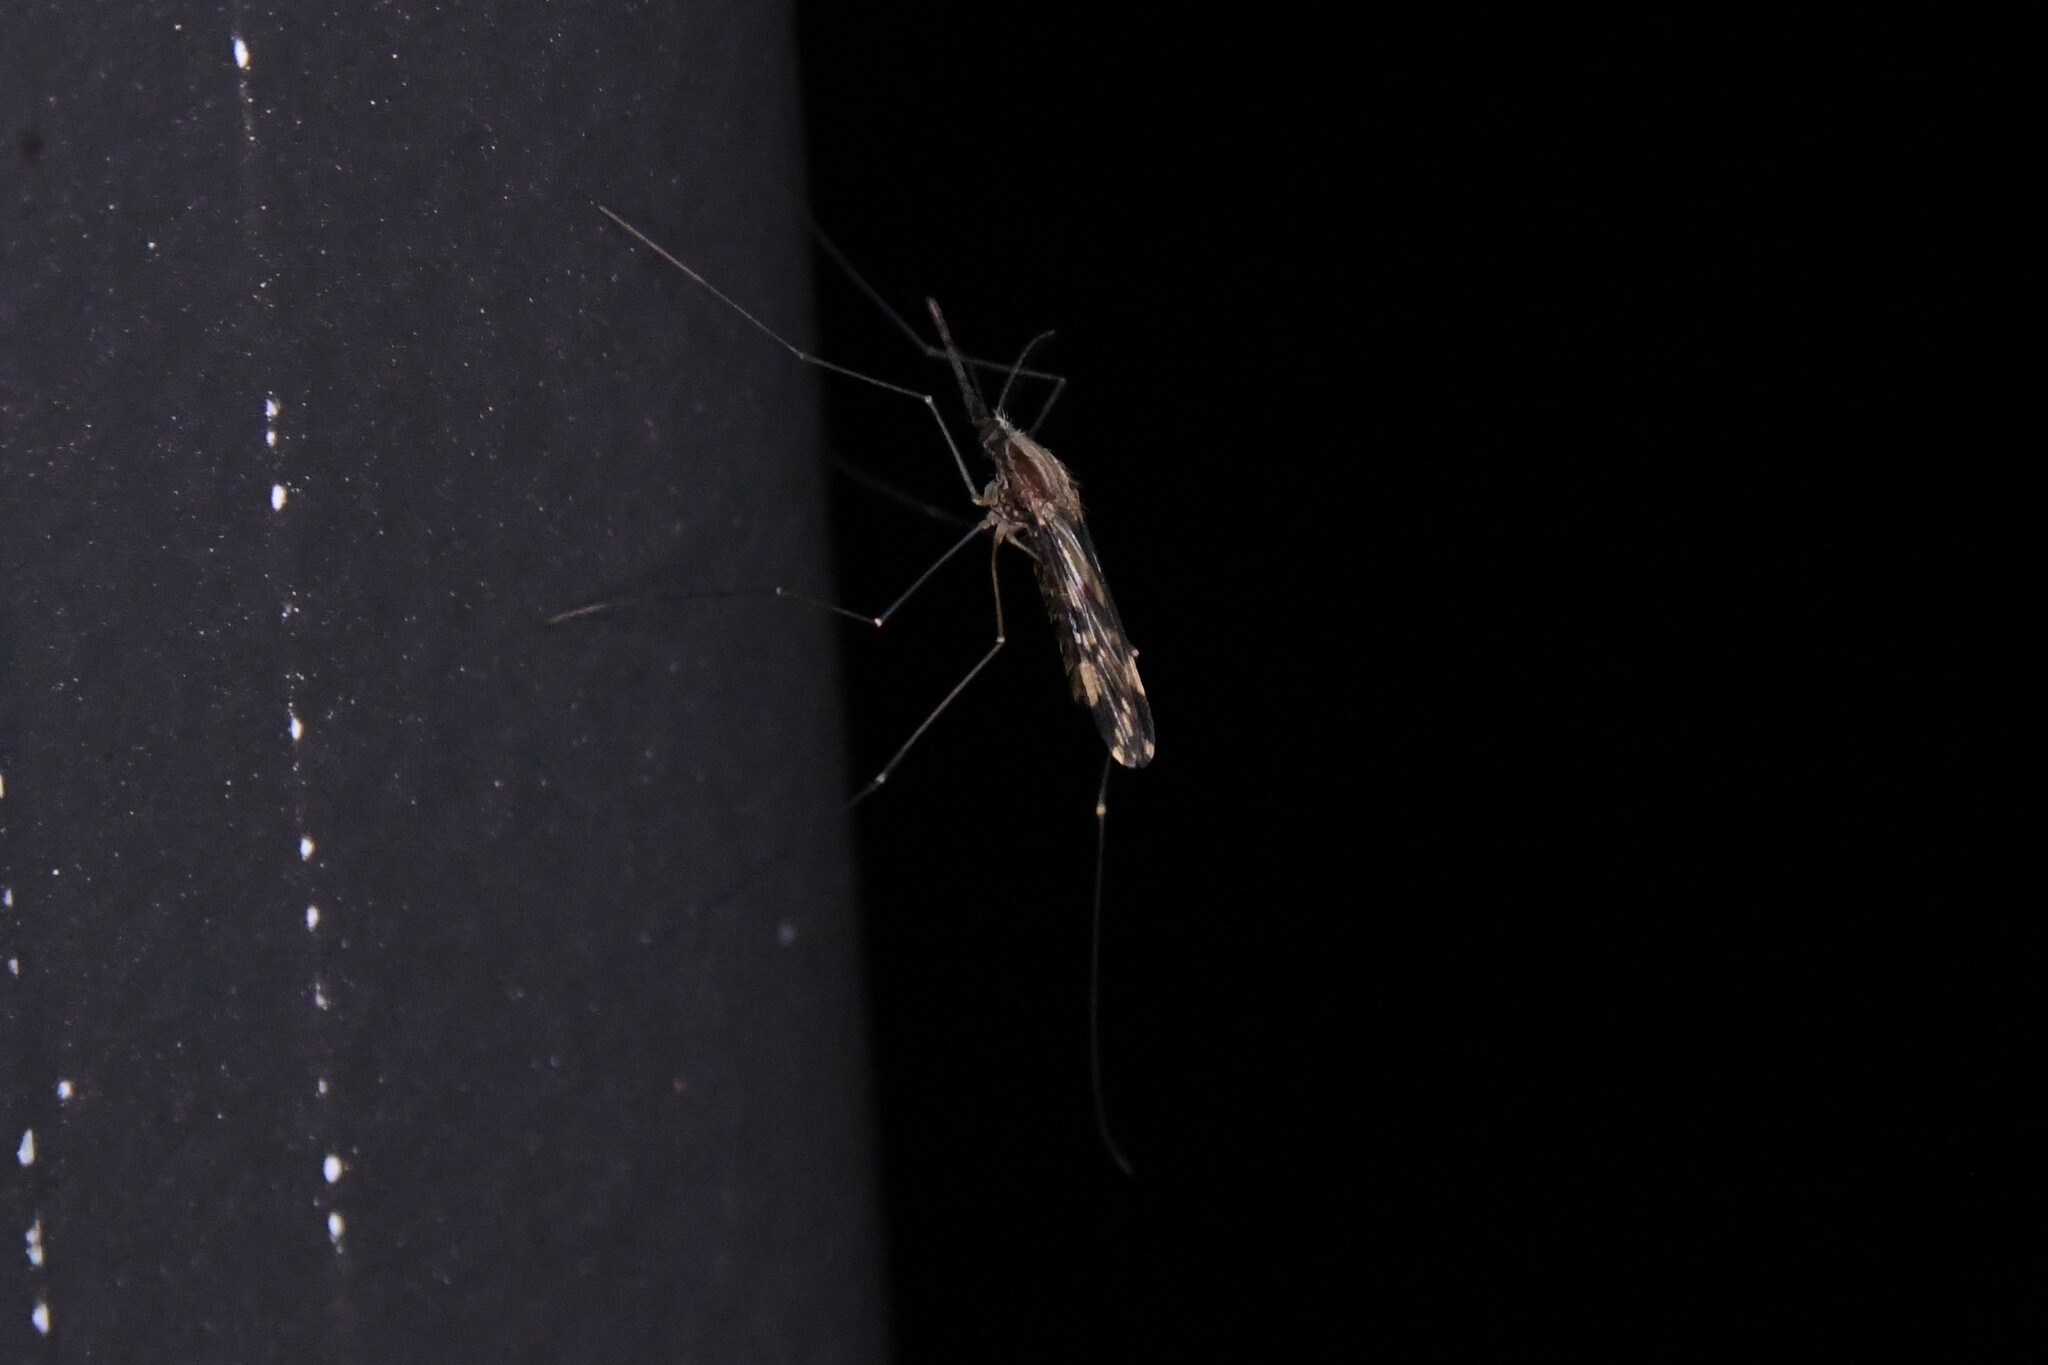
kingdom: Animalia
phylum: Arthropoda
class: Insecta
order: Diptera
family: Culicidae
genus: Anopheles
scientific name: Anopheles punctipennis
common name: Woodland malaria mosquito
